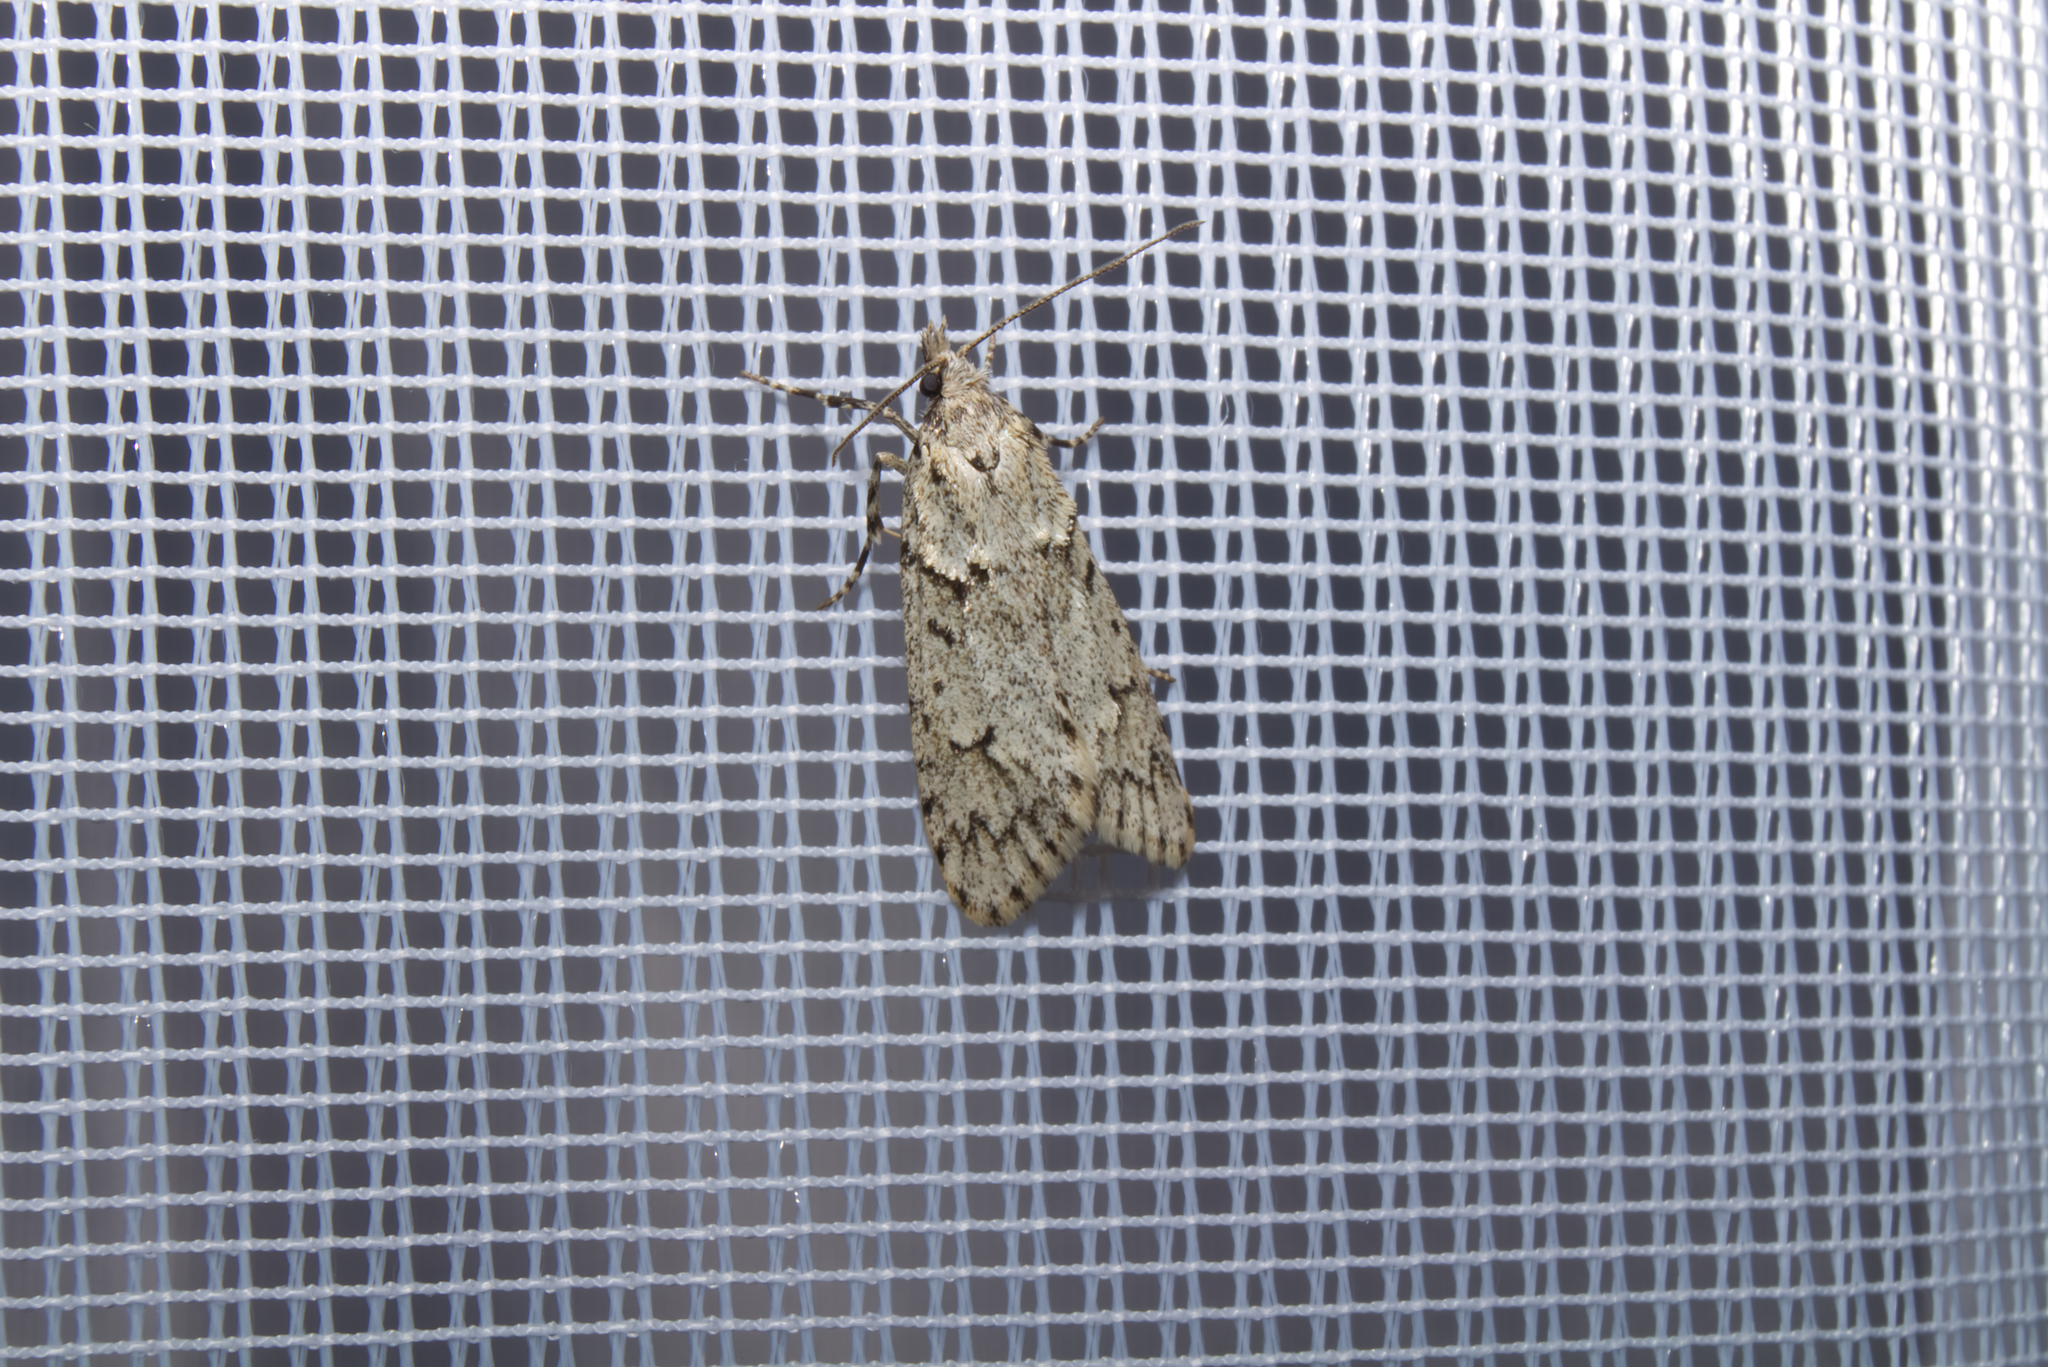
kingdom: Animalia
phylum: Arthropoda
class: Insecta
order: Lepidoptera
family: Lypusidae
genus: Diurnea
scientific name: Diurnea fagella
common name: March tubic
